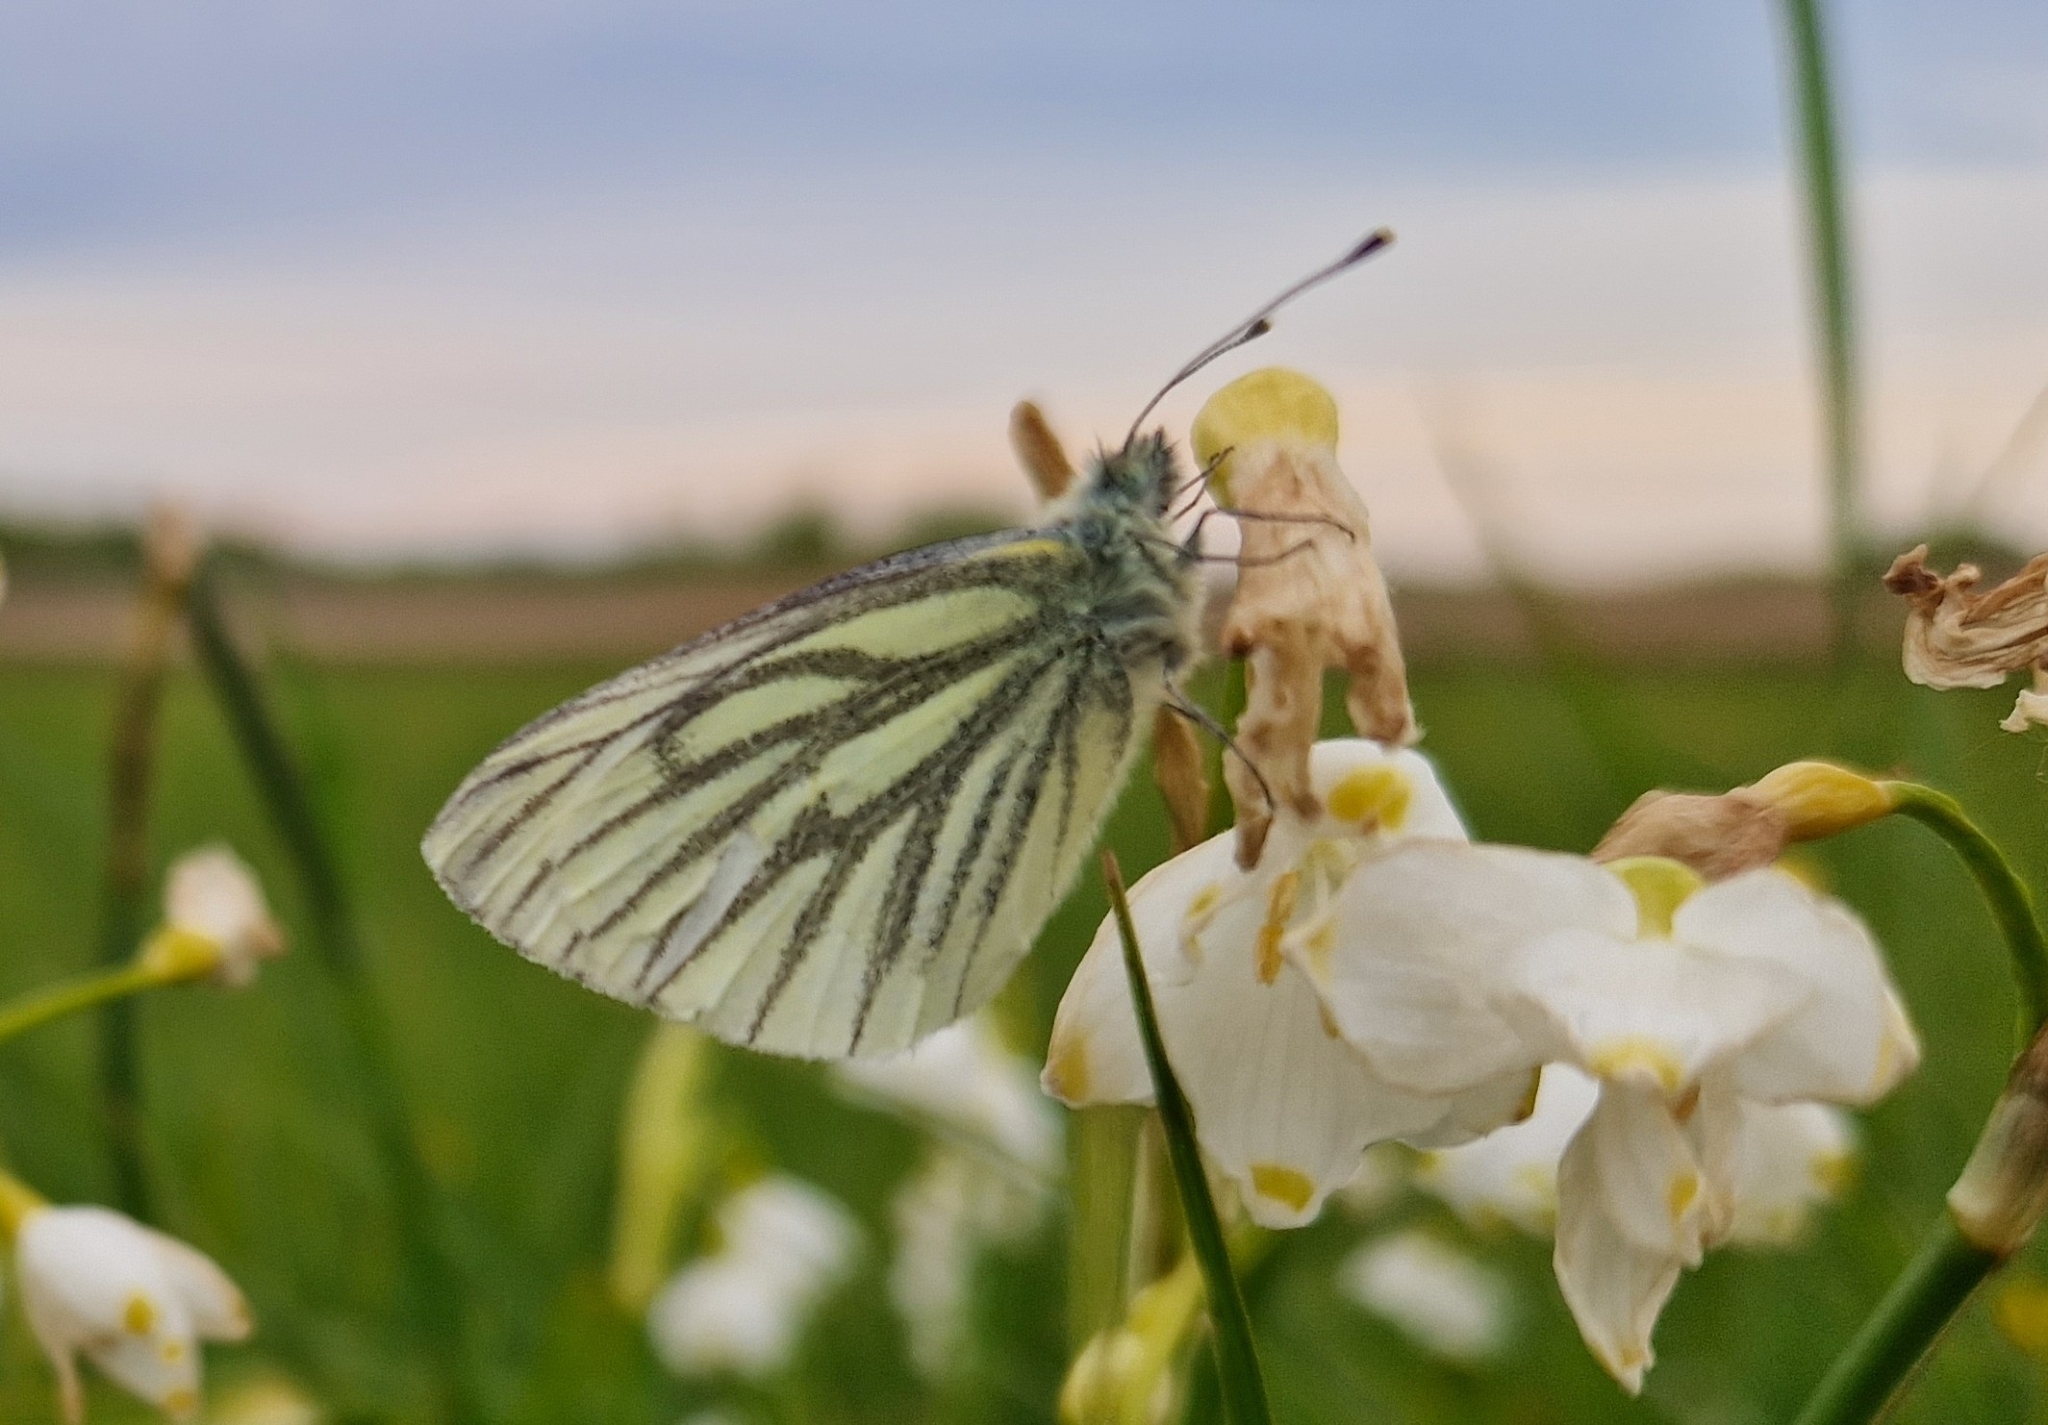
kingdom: Animalia
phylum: Arthropoda
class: Insecta
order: Lepidoptera
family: Pieridae
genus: Pieris
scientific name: Pieris napi
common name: Green-veined white
